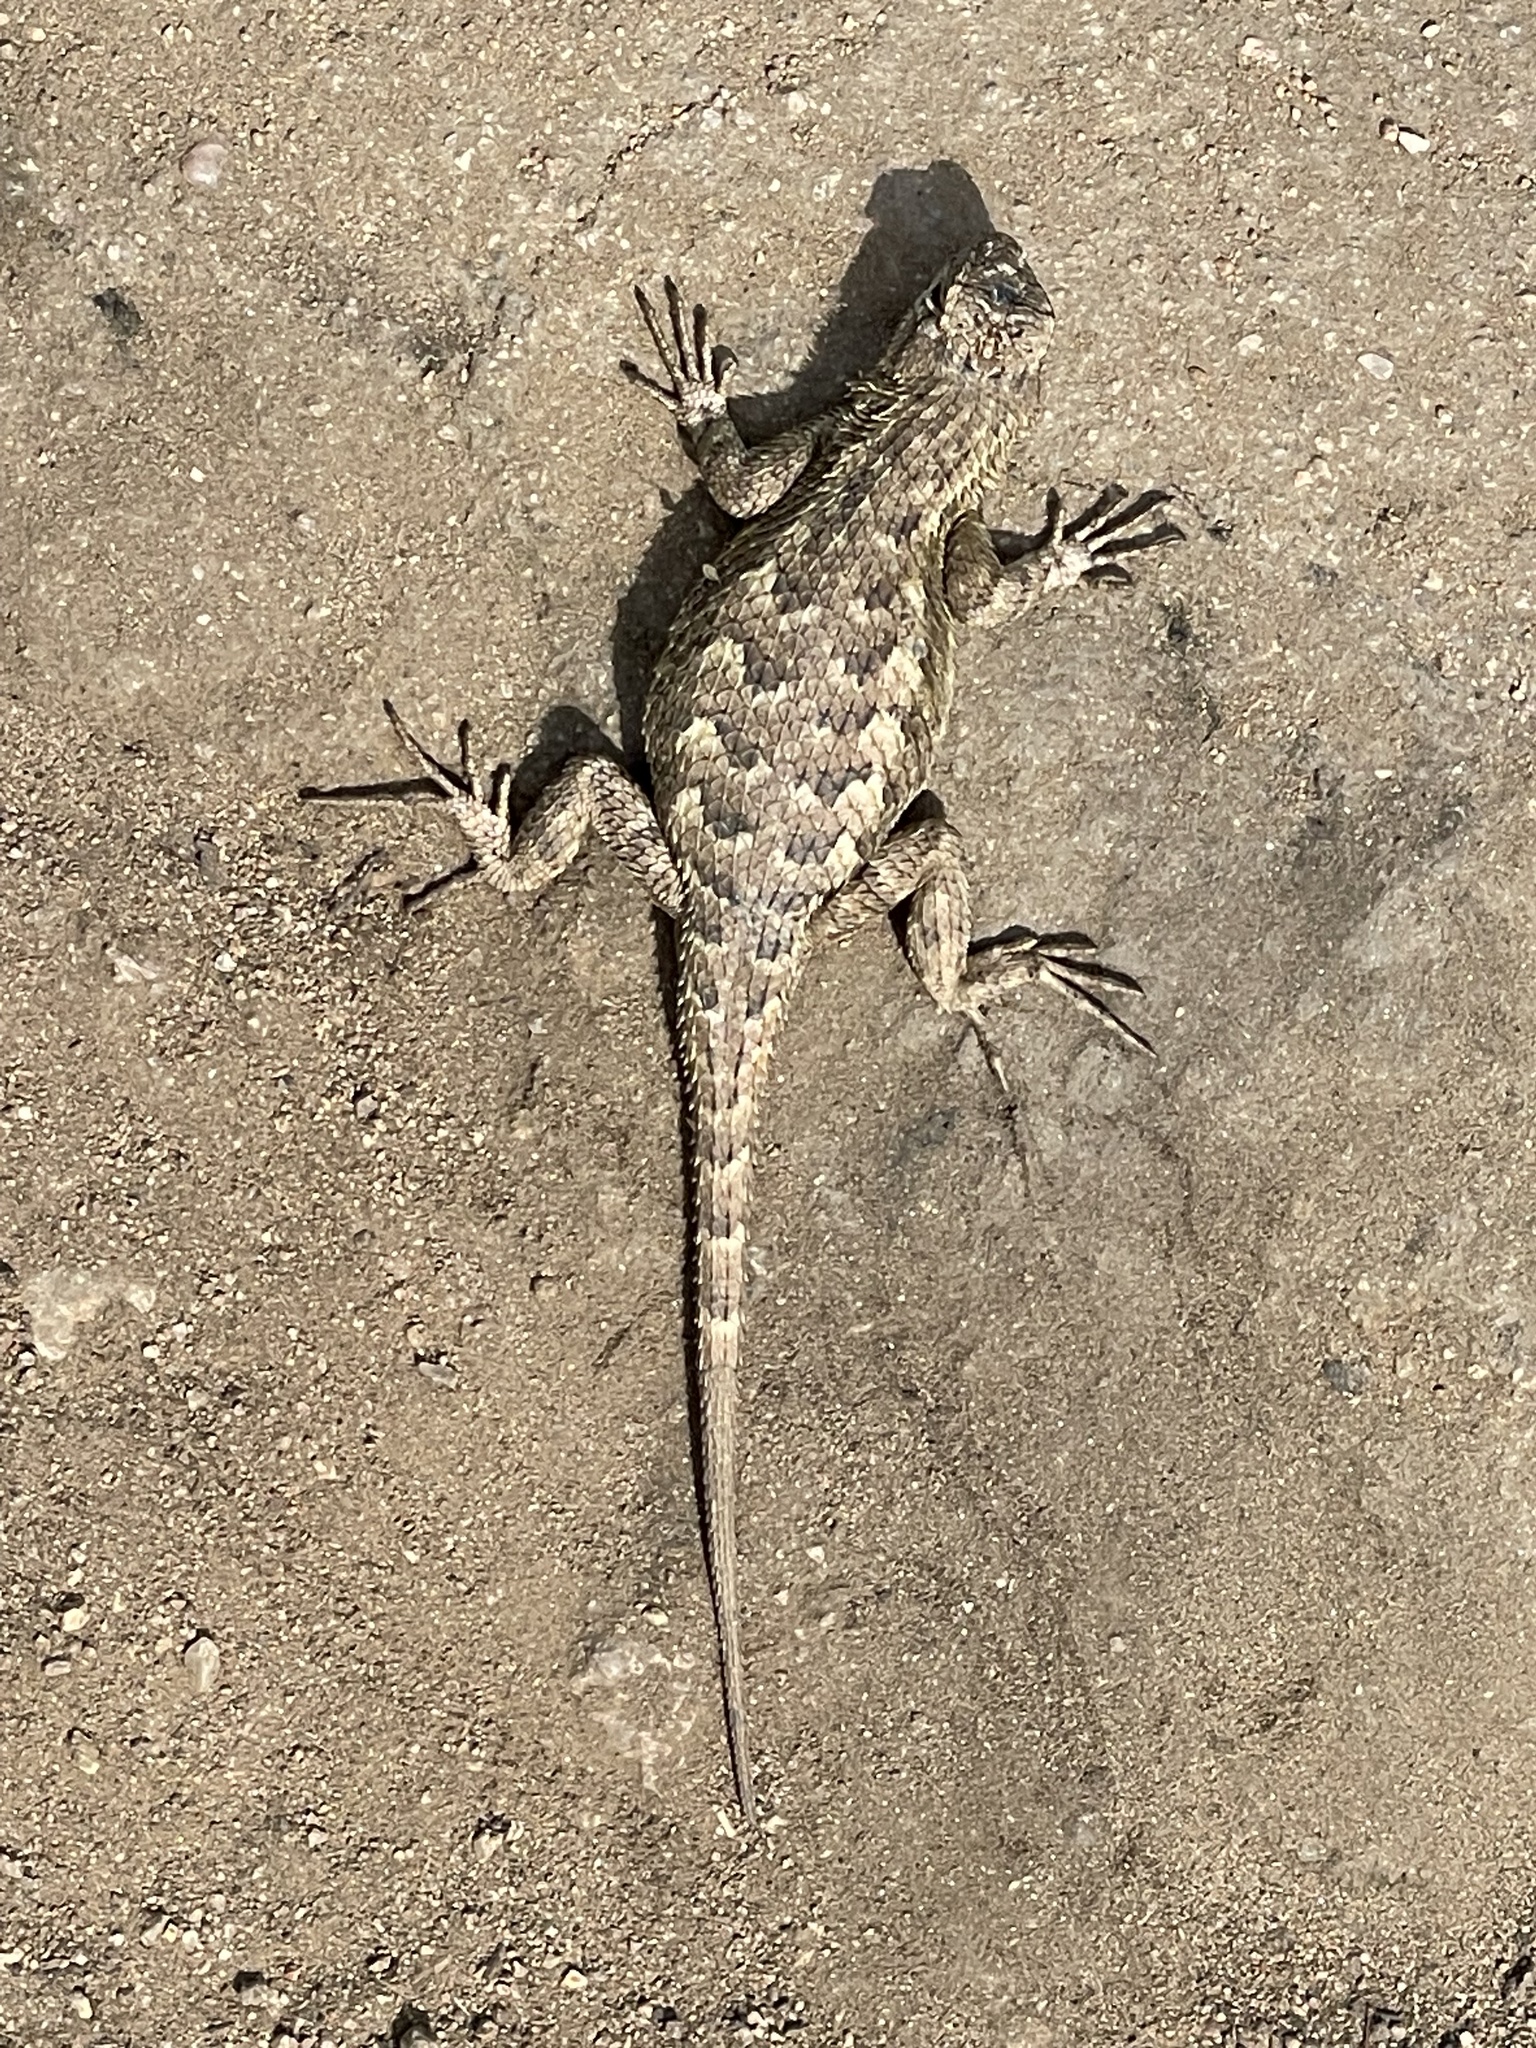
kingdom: Animalia
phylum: Chordata
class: Squamata
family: Phrynosomatidae
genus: Sceloporus
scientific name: Sceloporus occidentalis
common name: Western fence lizard
